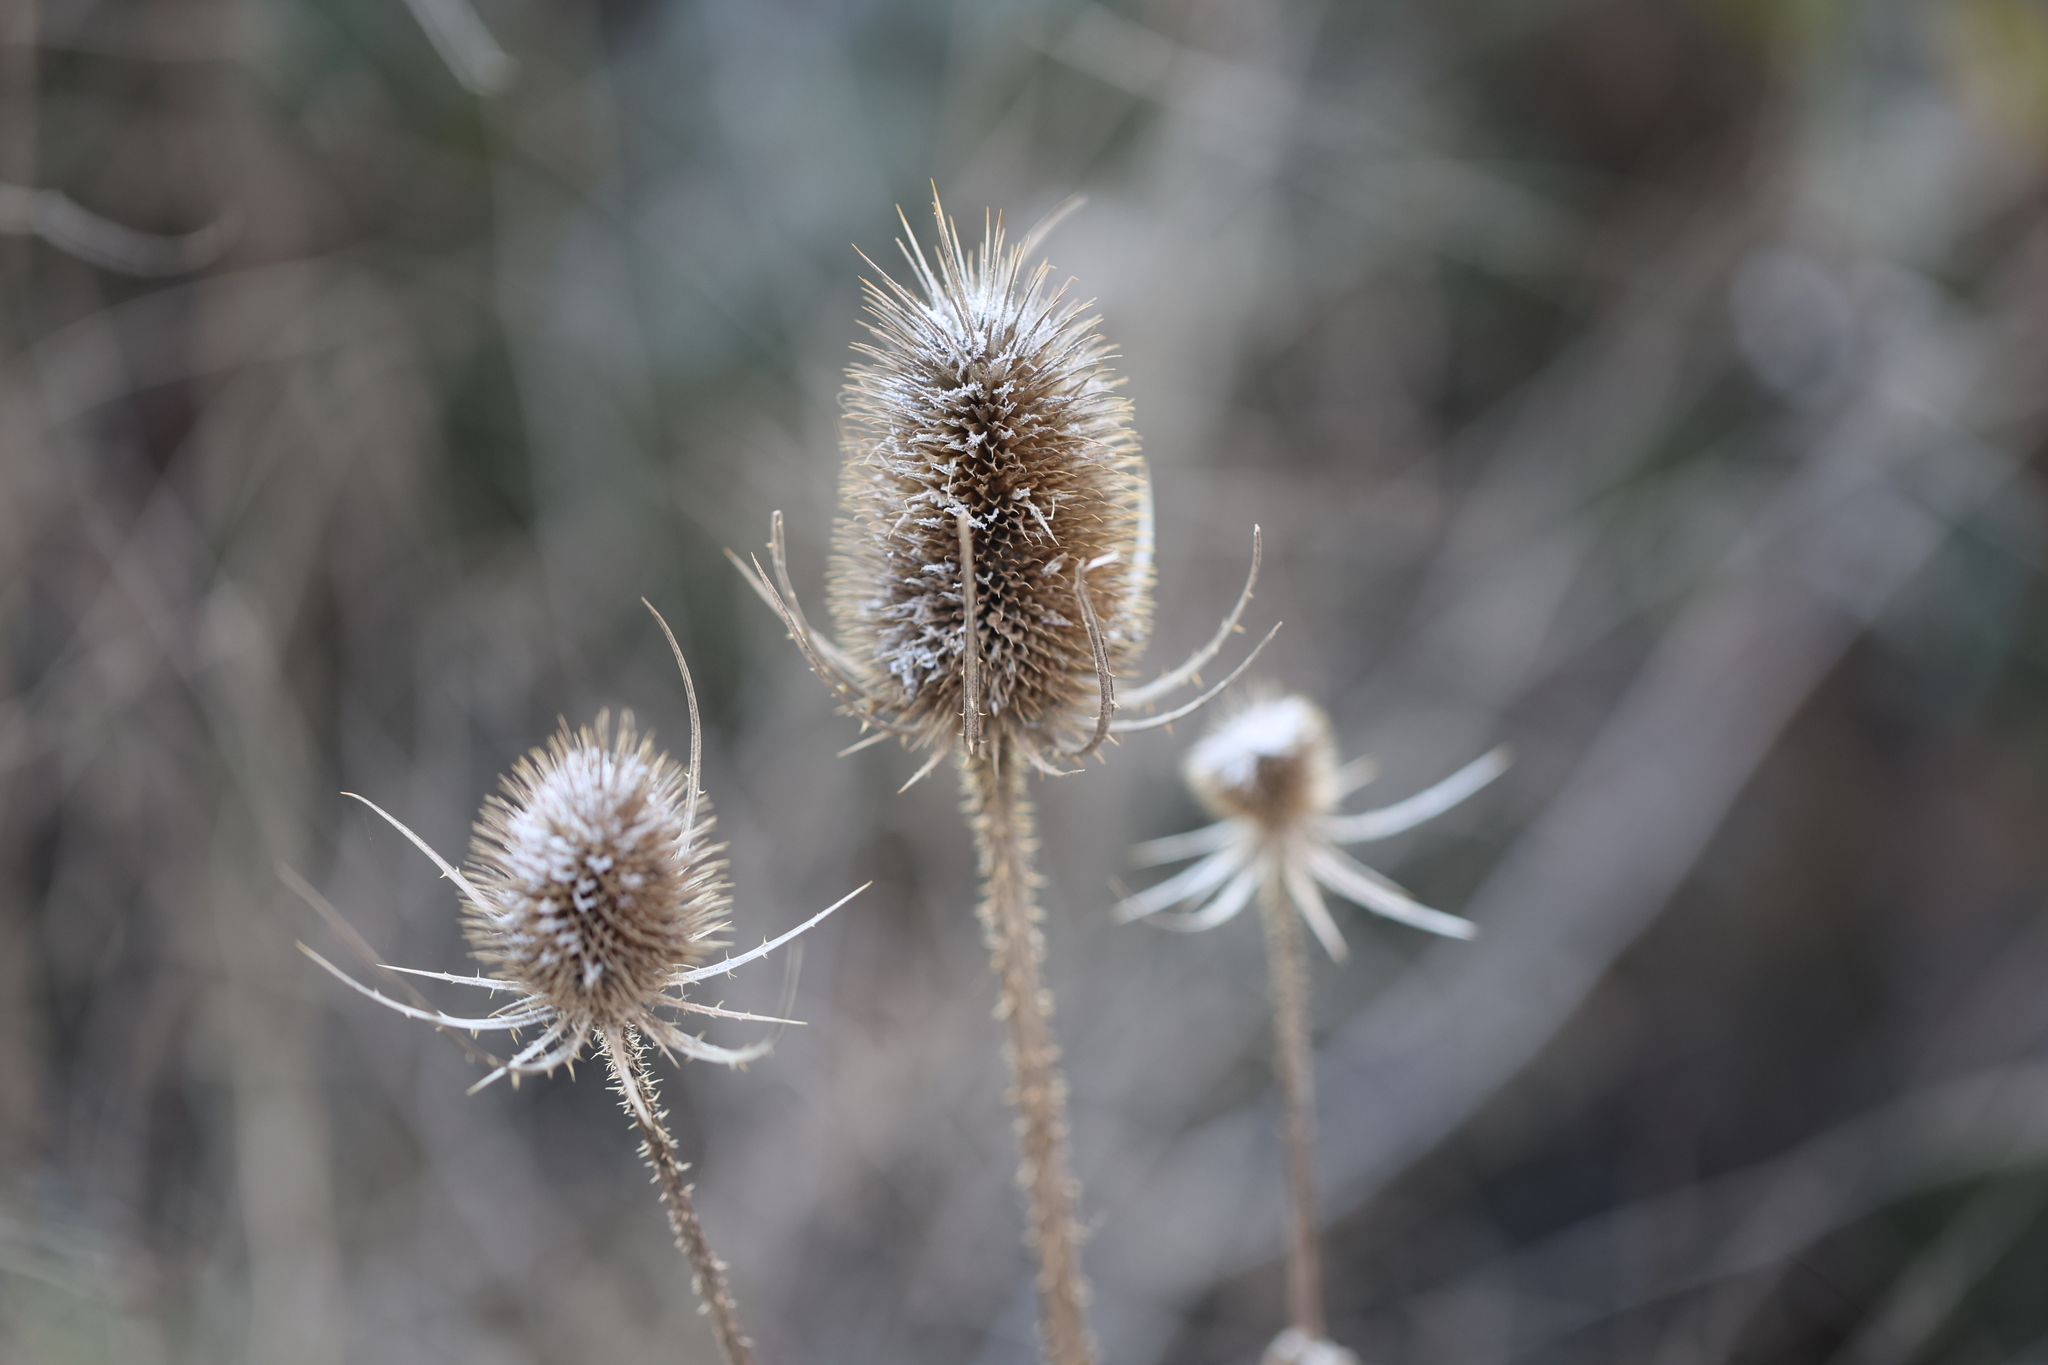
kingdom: Plantae
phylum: Tracheophyta
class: Magnoliopsida
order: Dipsacales
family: Caprifoliaceae
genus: Dipsacus
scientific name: Dipsacus fullonum
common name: Teasel
